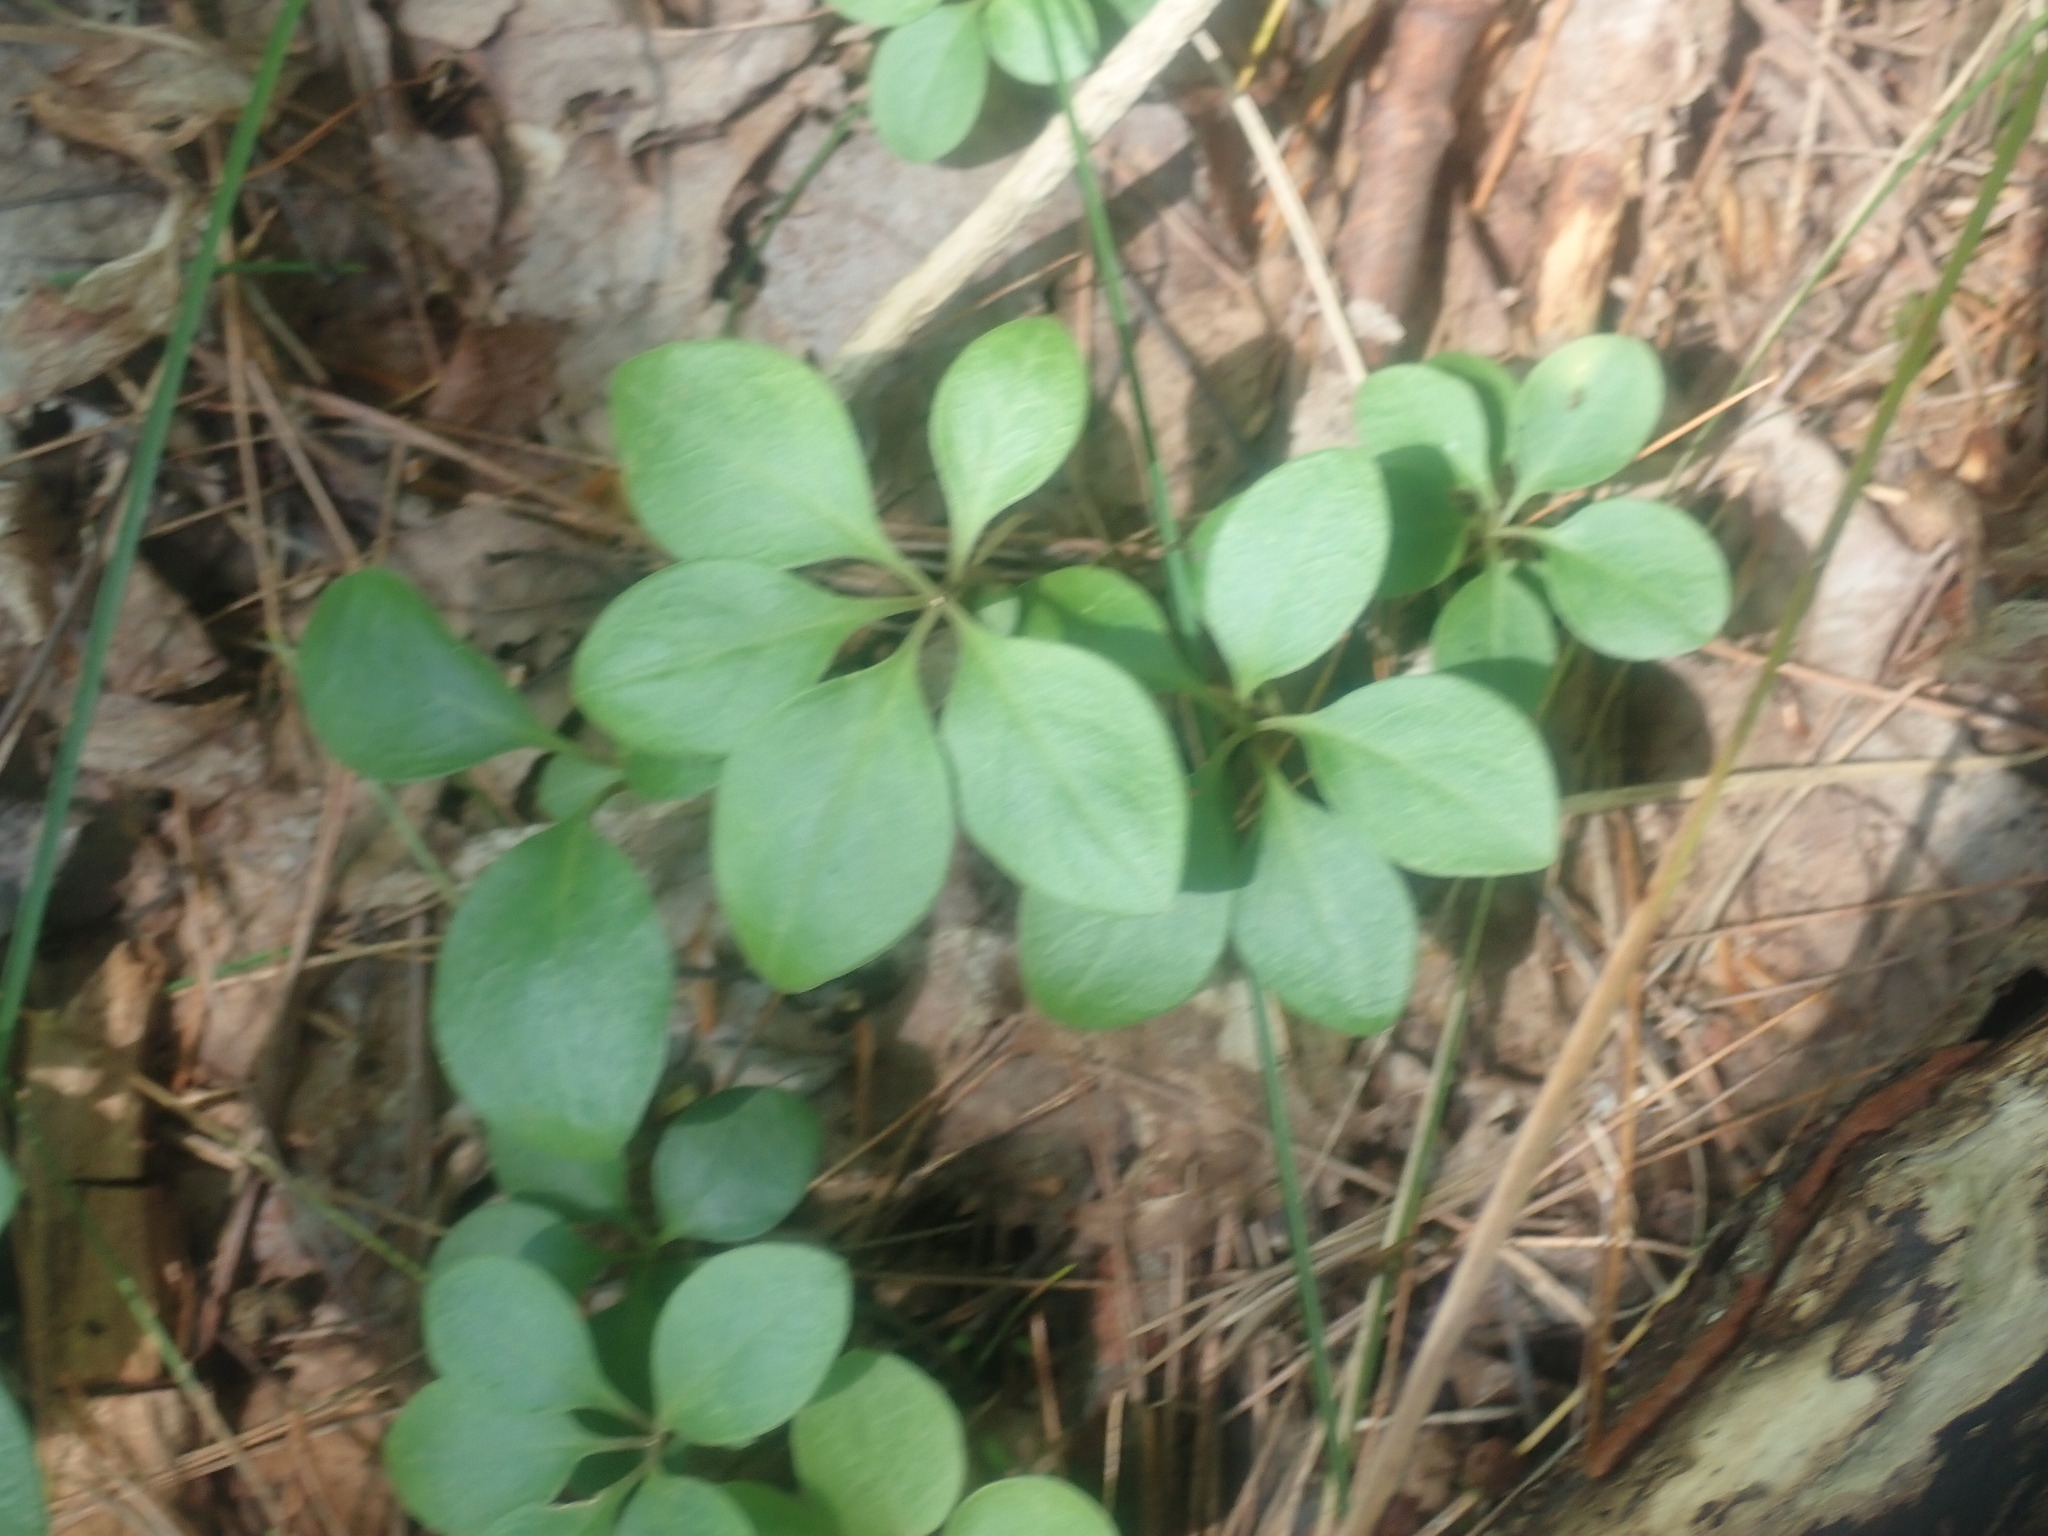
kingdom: Plantae
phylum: Tracheophyta
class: Magnoliopsida
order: Fabales
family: Polygalaceae
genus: Polygaloides
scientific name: Polygaloides paucifolia
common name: Bird-on-the-wing
